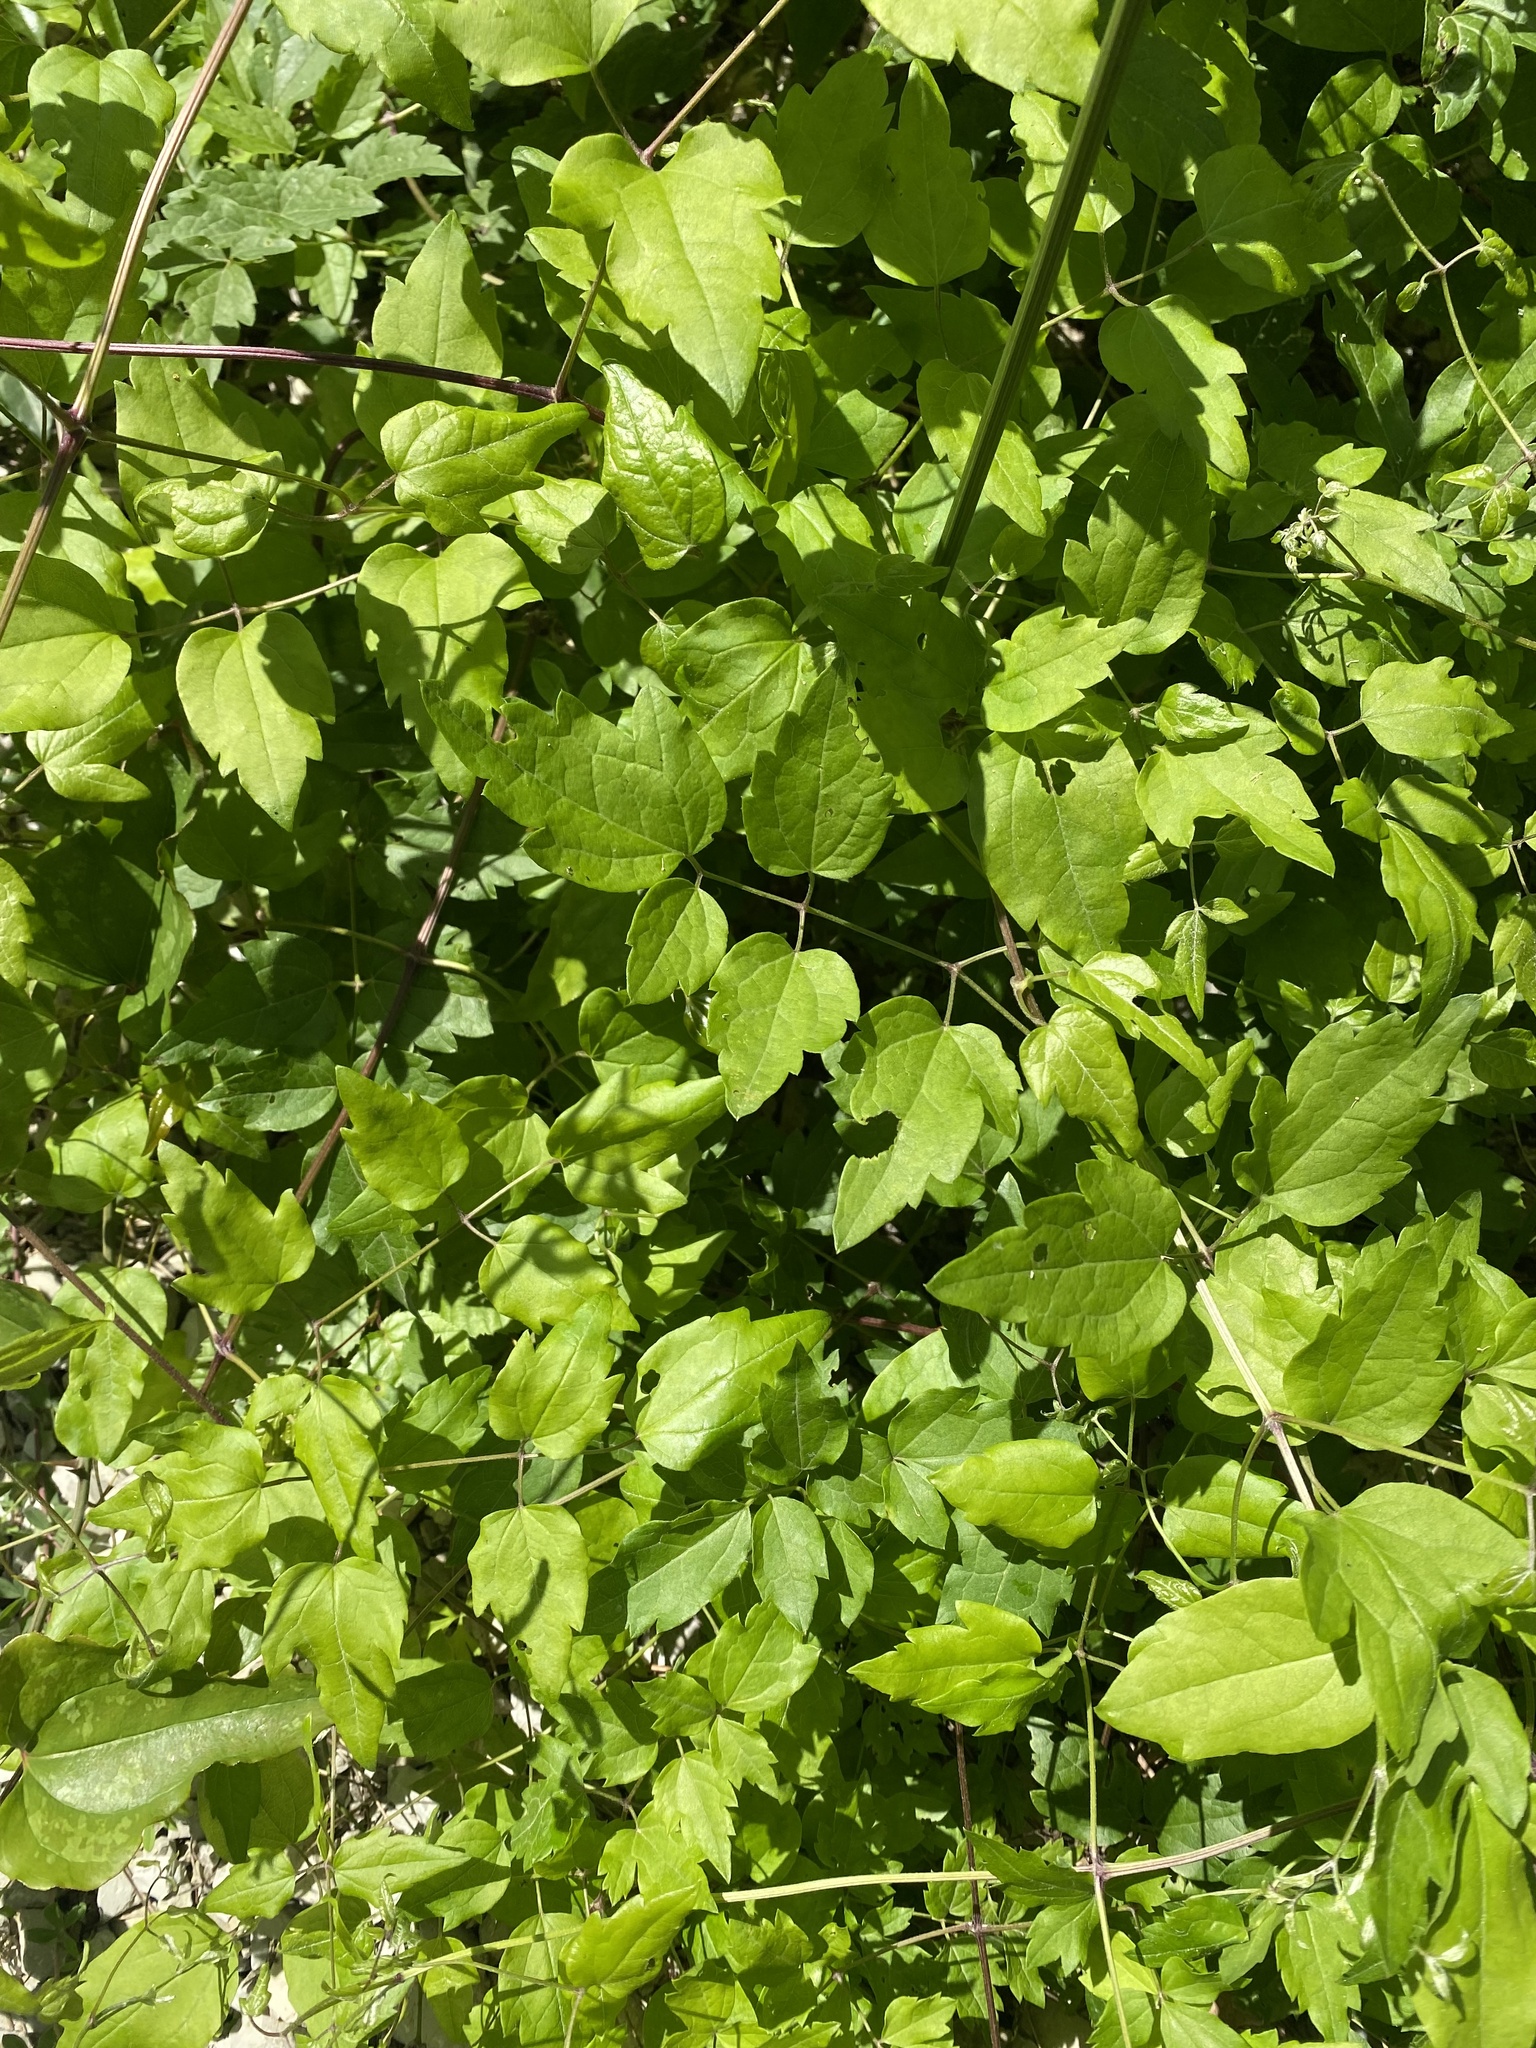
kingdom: Plantae
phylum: Tracheophyta
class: Magnoliopsida
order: Ranunculales
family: Ranunculaceae
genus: Clematis
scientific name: Clematis vitalba
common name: Evergreen clematis
